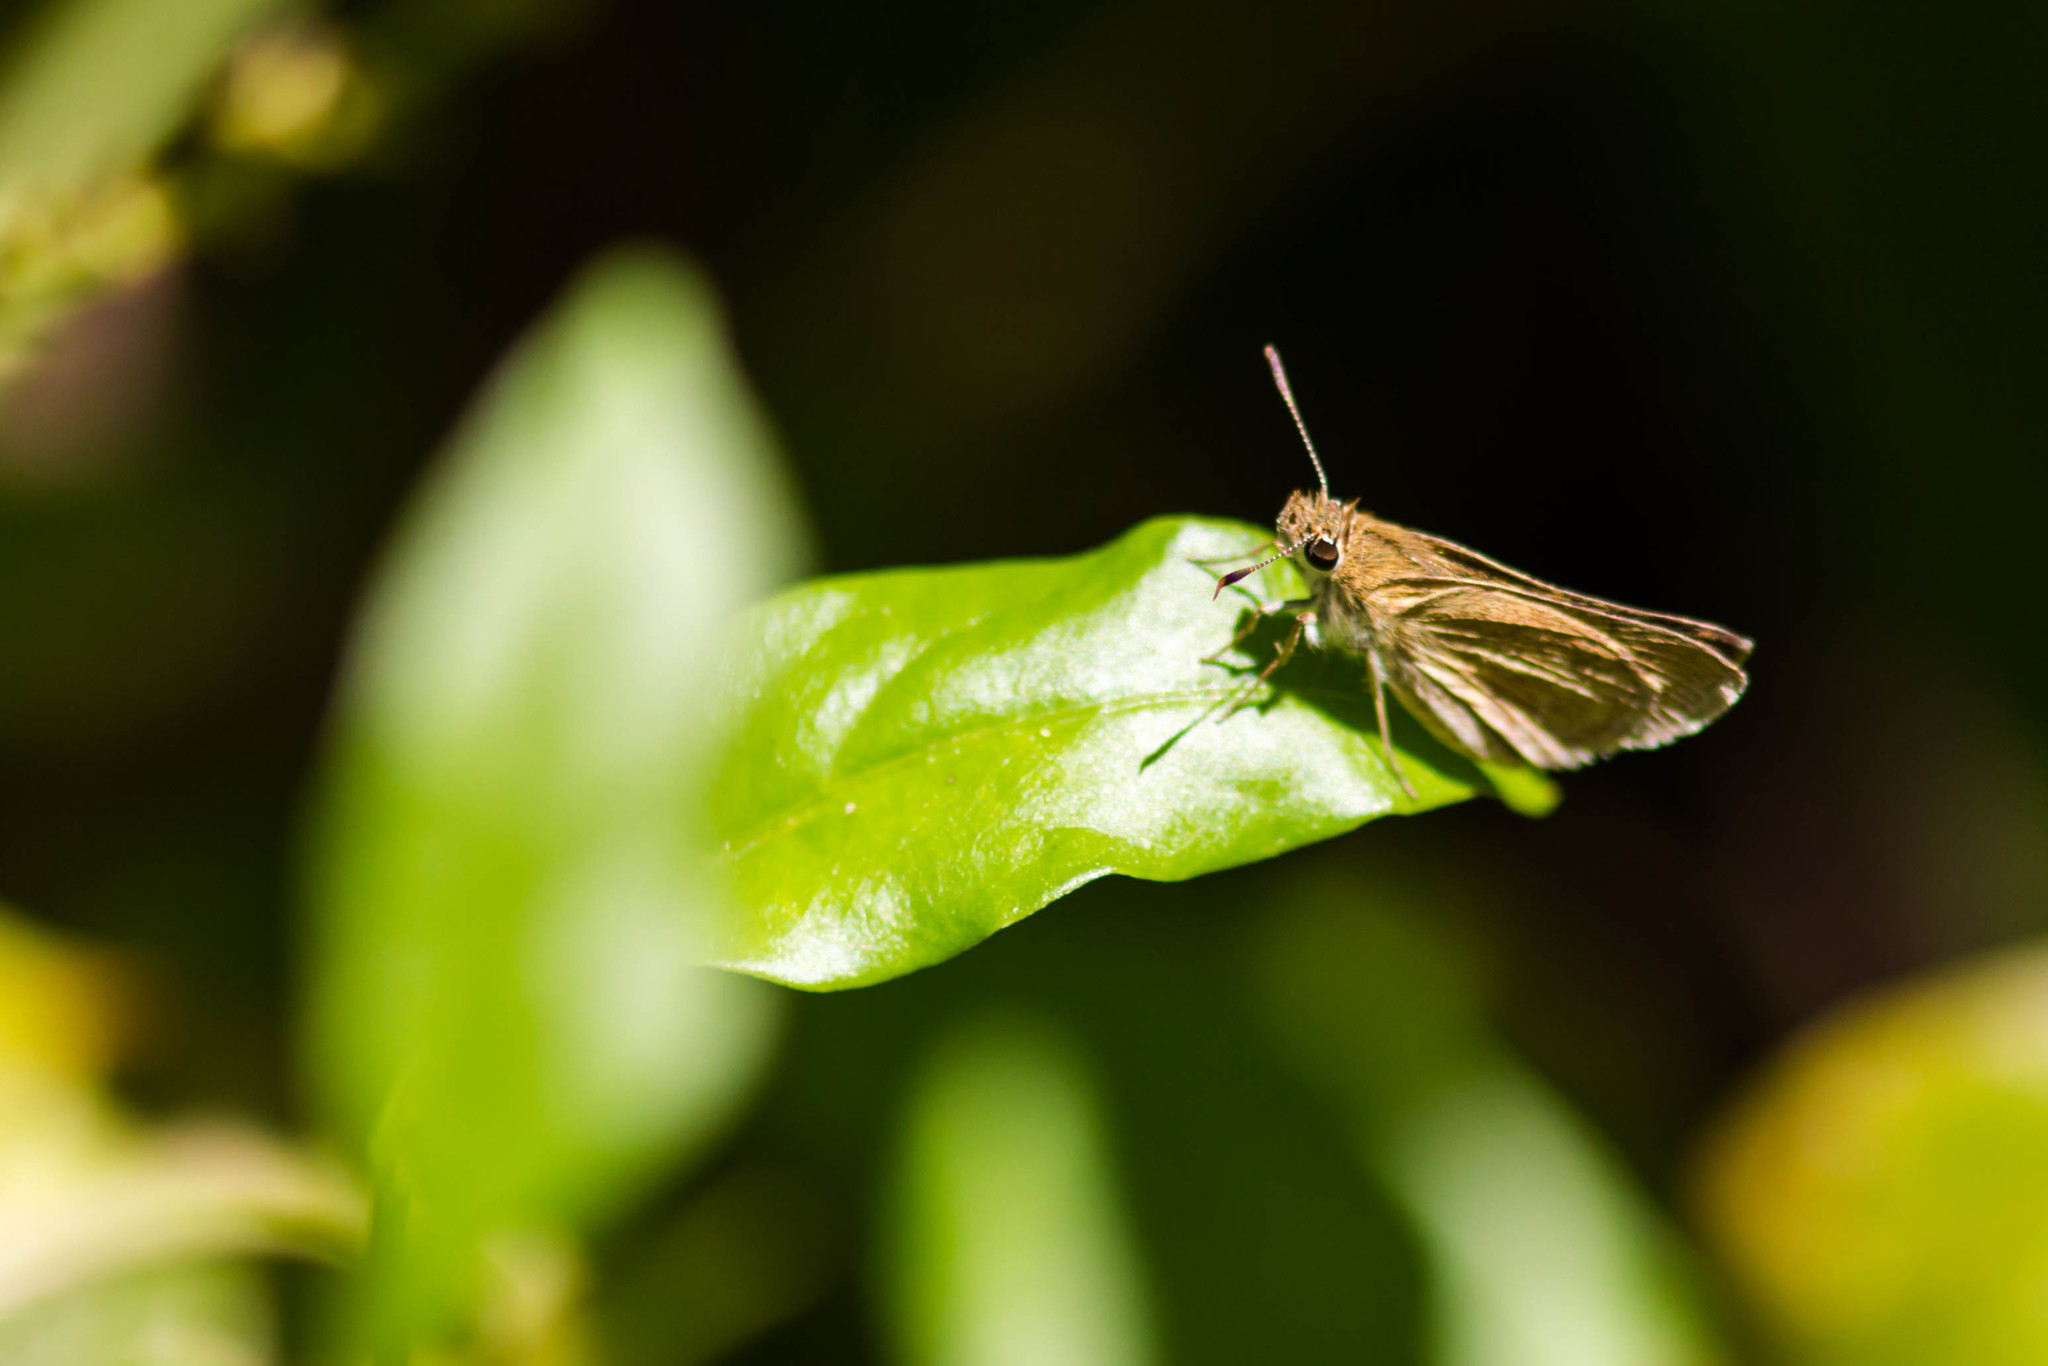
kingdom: Animalia
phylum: Arthropoda
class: Insecta
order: Lepidoptera
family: Hesperiidae
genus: Lerodea
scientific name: Lerodea eufala
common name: Eufala skipper
